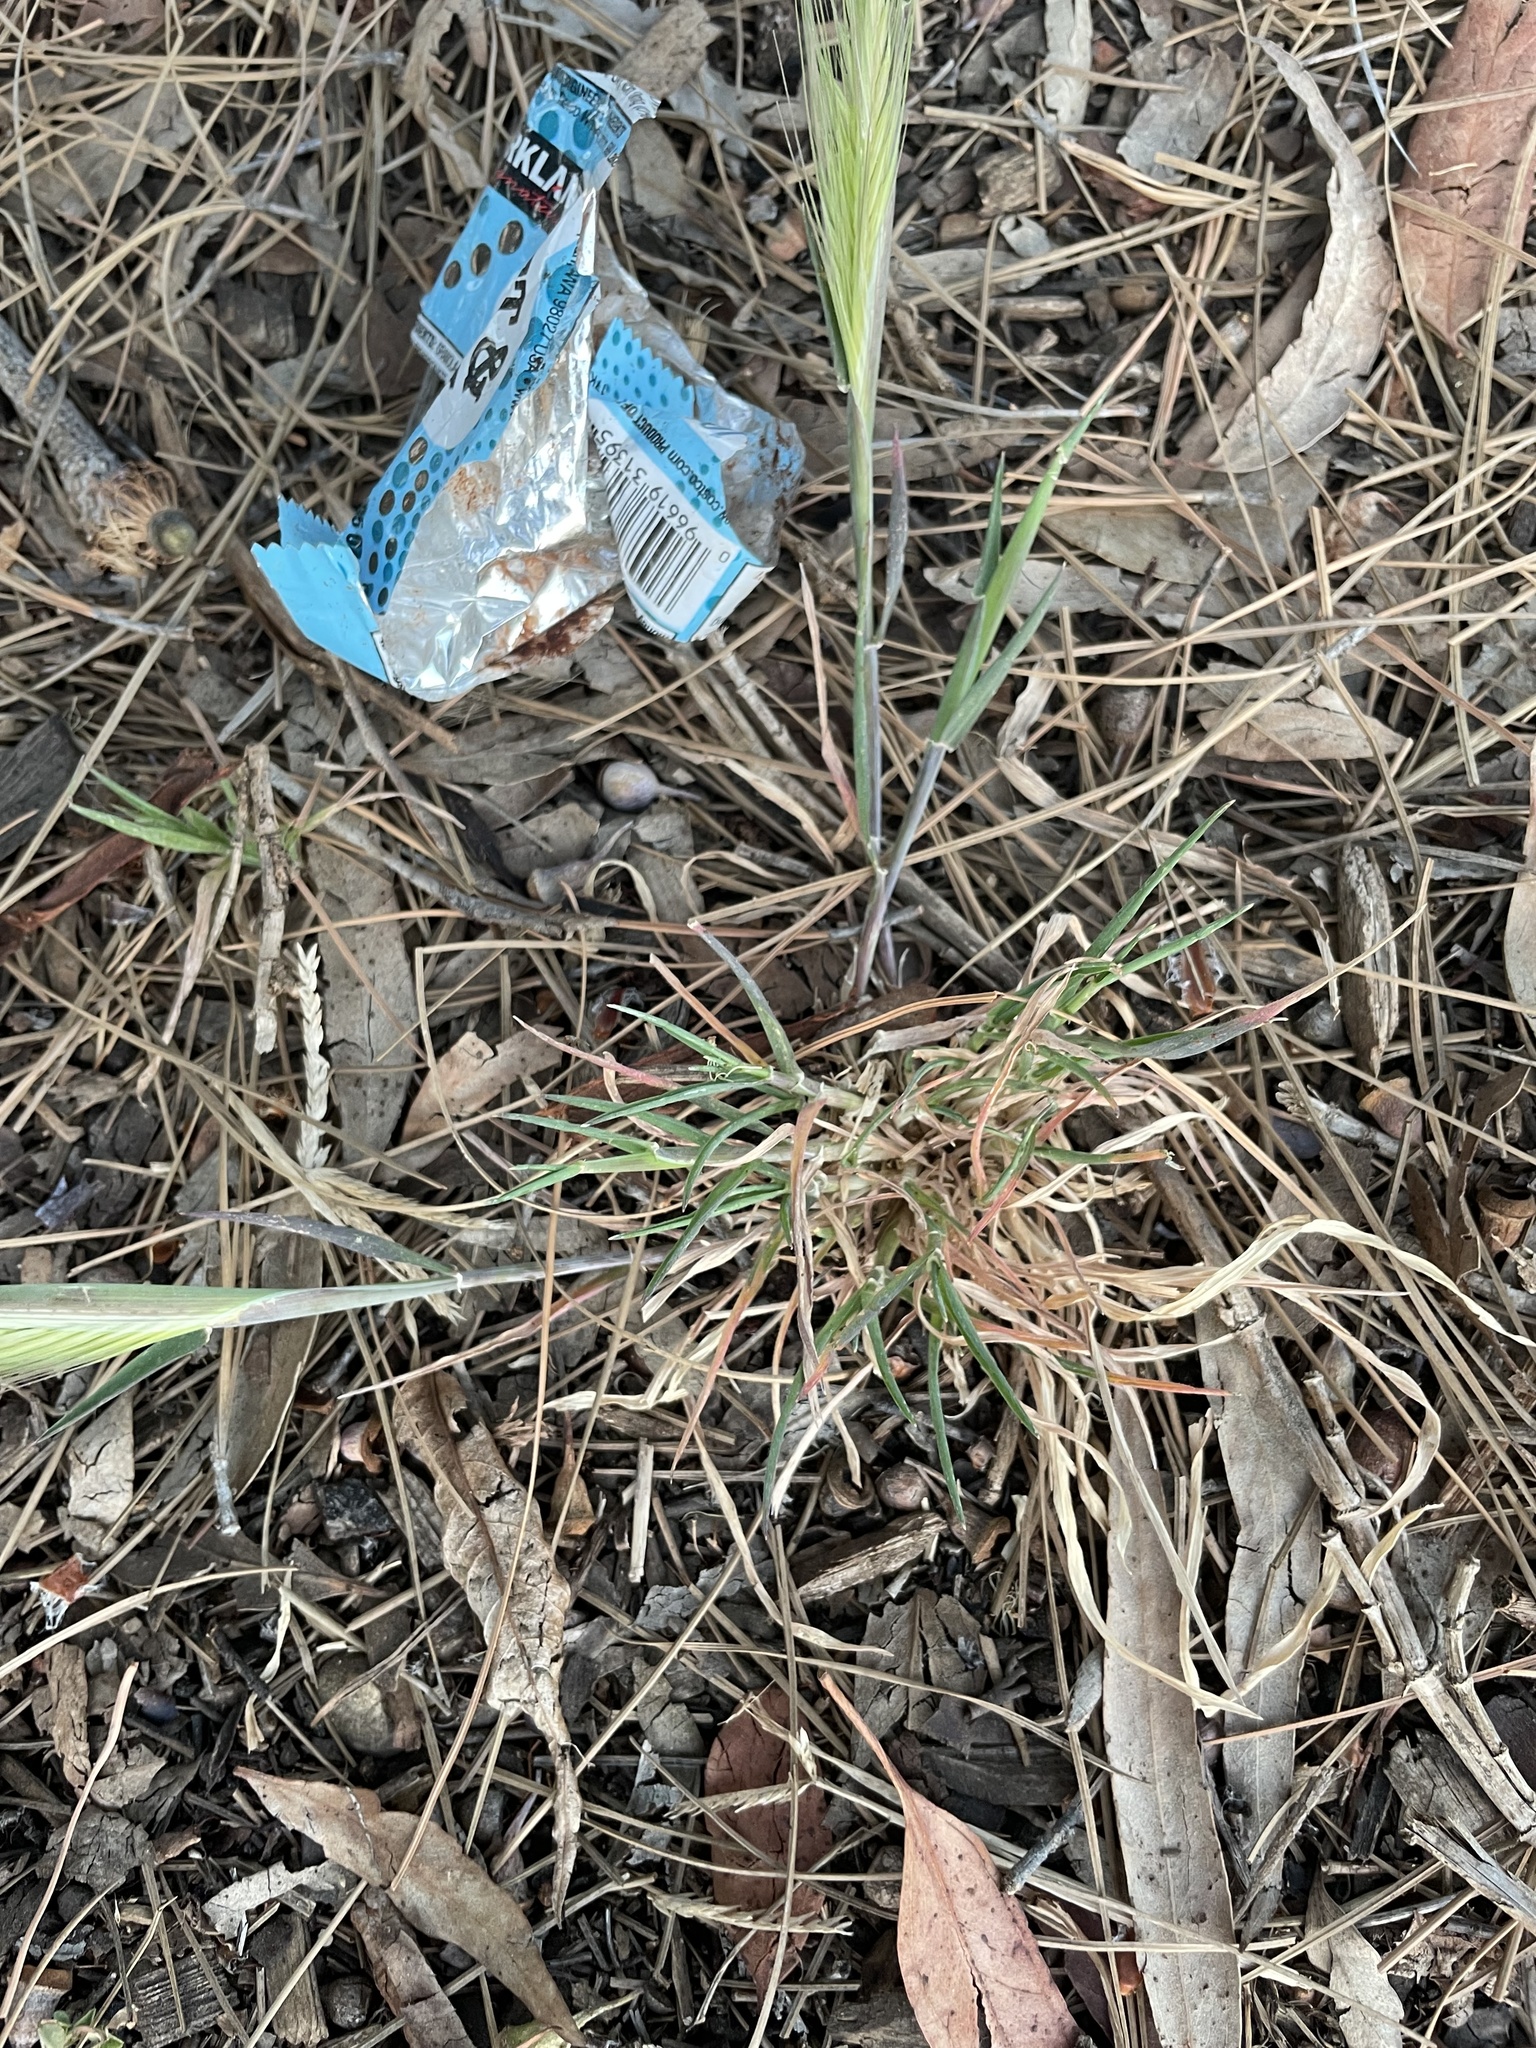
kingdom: Plantae
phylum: Tracheophyta
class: Liliopsida
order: Poales
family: Poaceae
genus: Hordeum
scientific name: Hordeum murinum
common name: Wall barley
